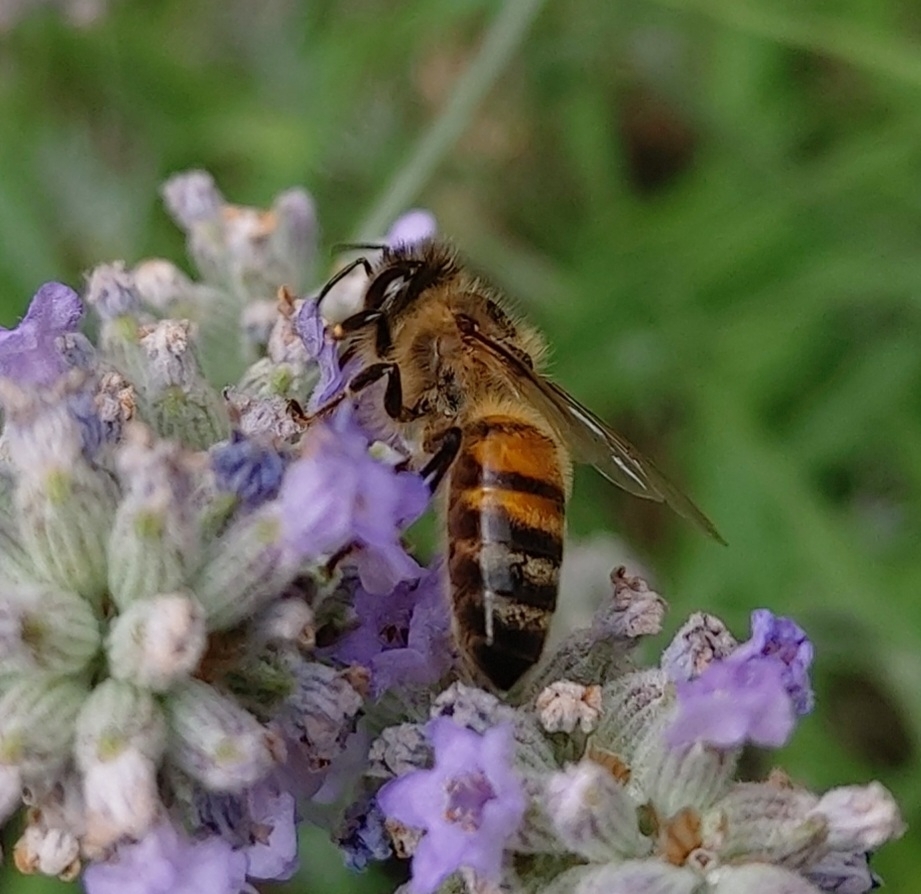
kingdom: Animalia
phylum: Arthropoda
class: Insecta
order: Hymenoptera
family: Apidae
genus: Apis
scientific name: Apis mellifera
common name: Honey bee
